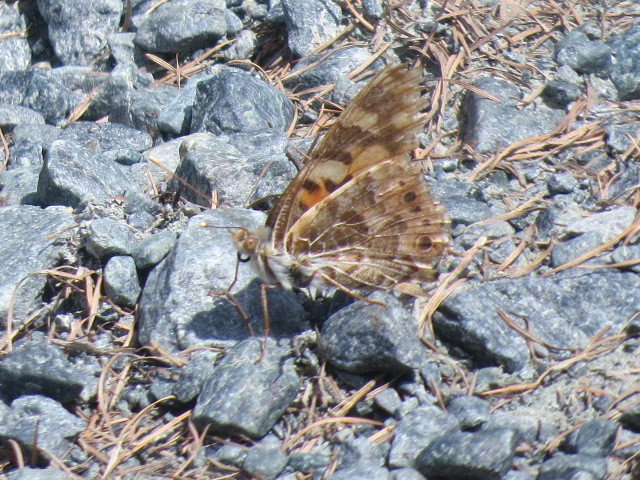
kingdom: Animalia
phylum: Arthropoda
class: Insecta
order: Lepidoptera
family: Nymphalidae
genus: Vanessa
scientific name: Vanessa cardui
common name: Painted lady
